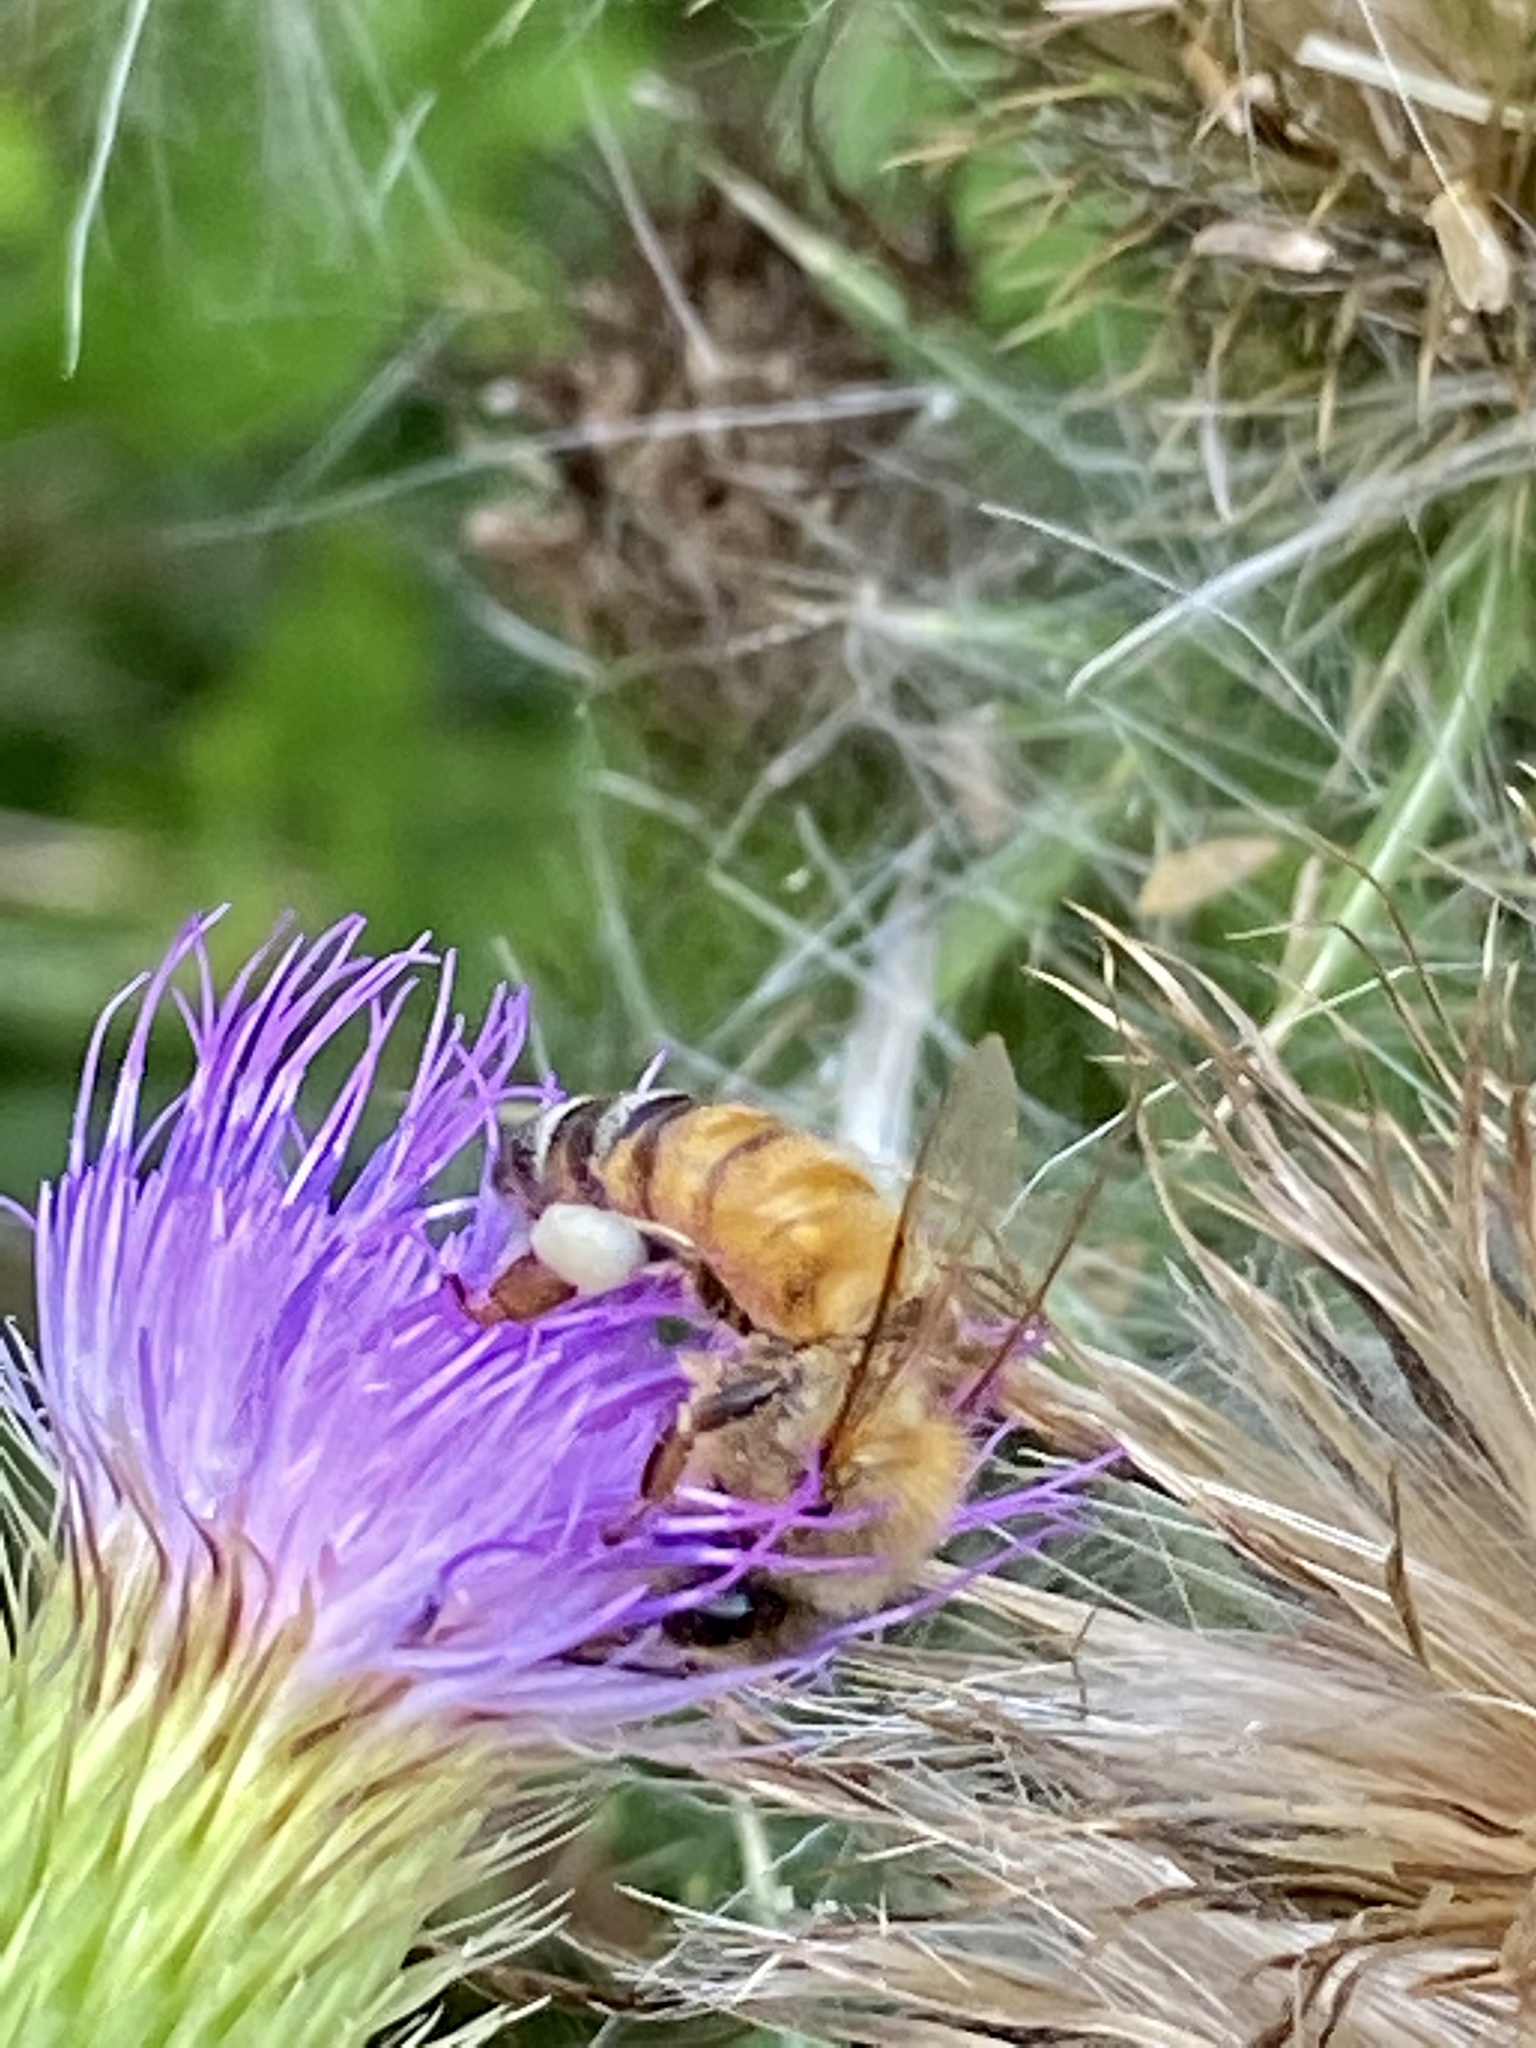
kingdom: Animalia
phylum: Arthropoda
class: Insecta
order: Hymenoptera
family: Apidae
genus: Apis
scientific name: Apis mellifera
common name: Honey bee
